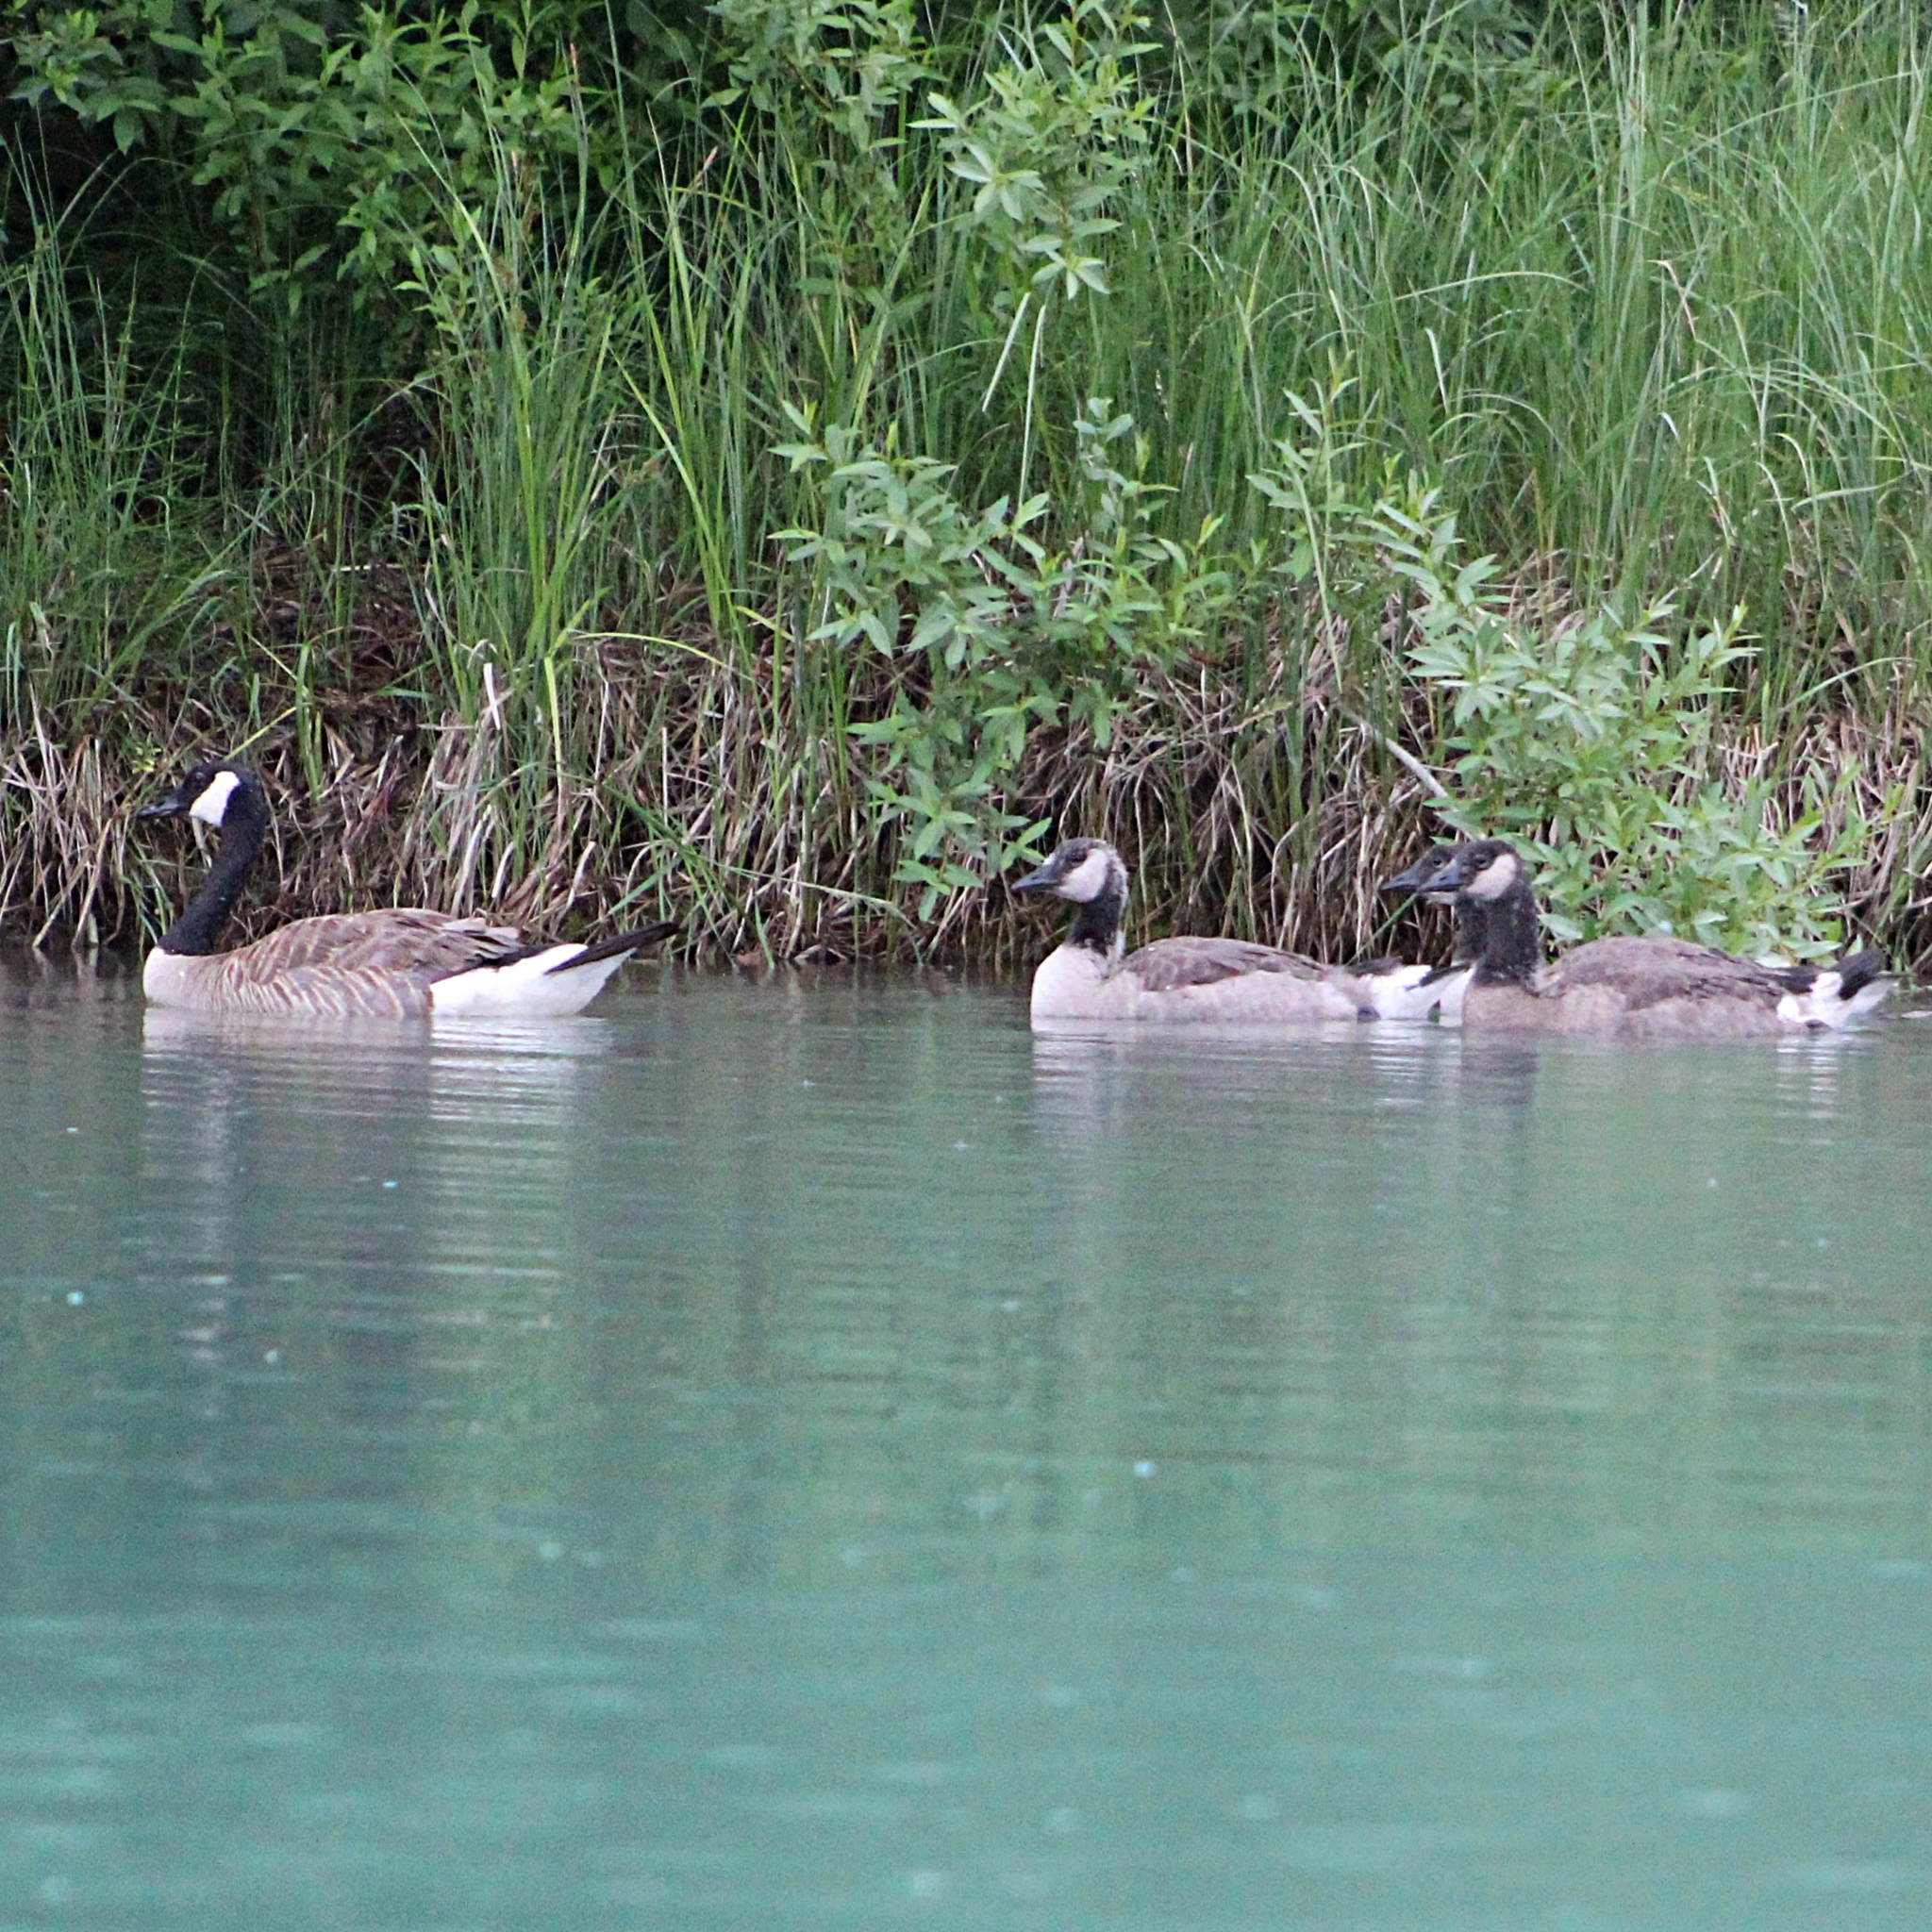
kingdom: Animalia
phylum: Chordata
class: Aves
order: Anseriformes
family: Anatidae
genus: Branta
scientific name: Branta canadensis
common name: Canada goose
